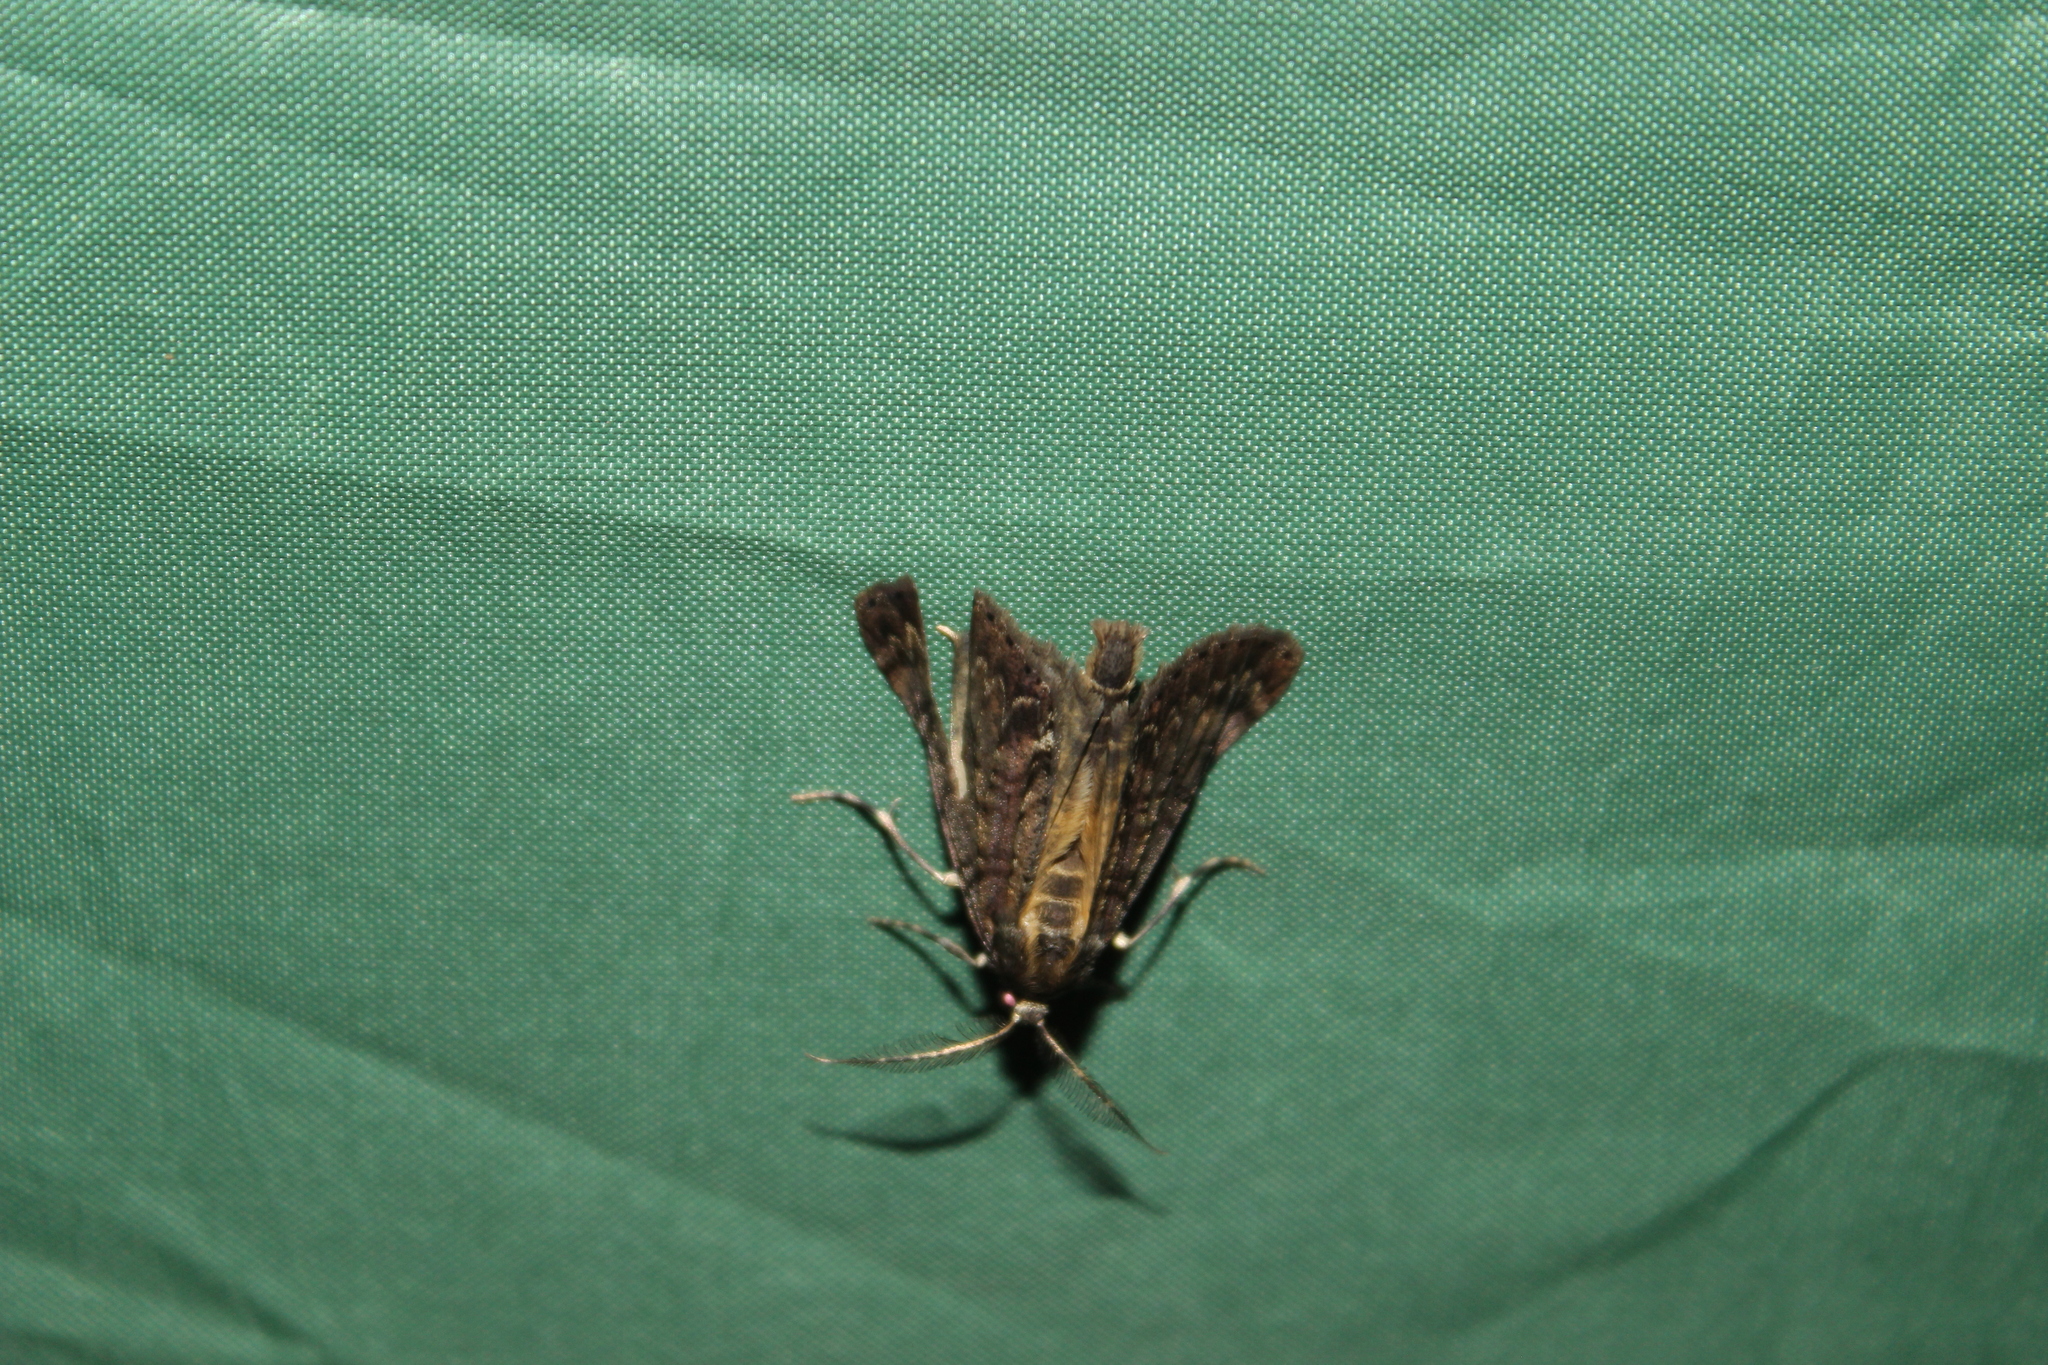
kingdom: Animalia
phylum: Arthropoda
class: Insecta
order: Lepidoptera
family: Geometridae
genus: Pseudocoremia
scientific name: Pseudocoremia suavis
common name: Common forest looper
